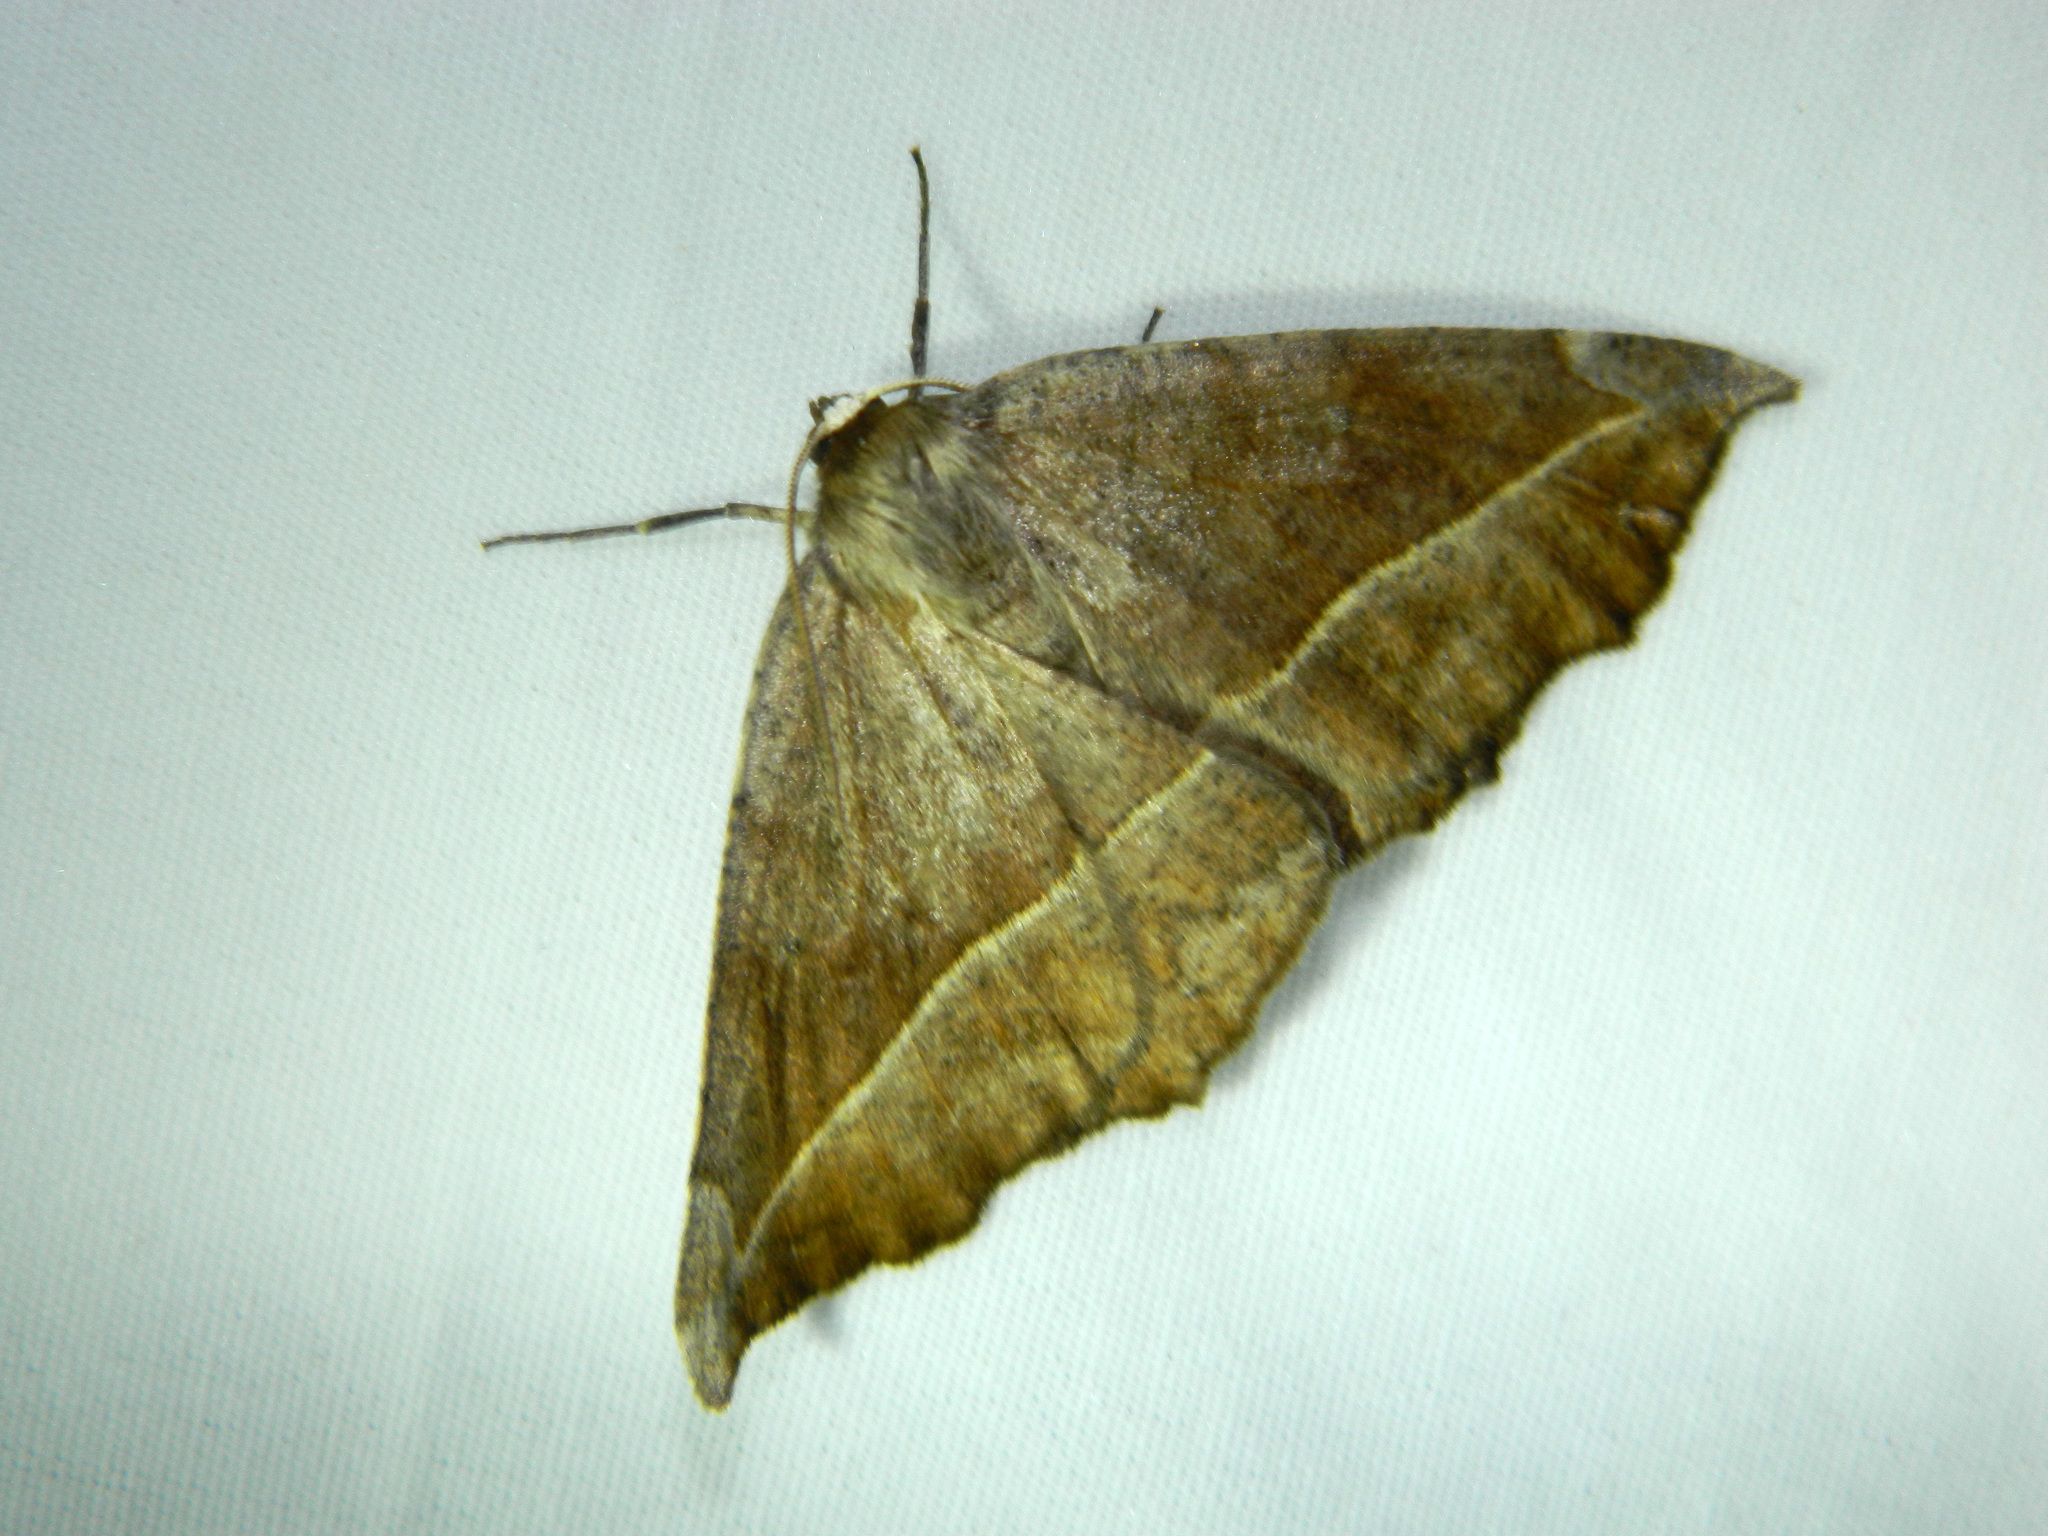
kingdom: Animalia
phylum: Arthropoda
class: Insecta
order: Lepidoptera
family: Geometridae
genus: Eutrapela
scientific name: Eutrapela clemataria
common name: Curved-toothed geometer
